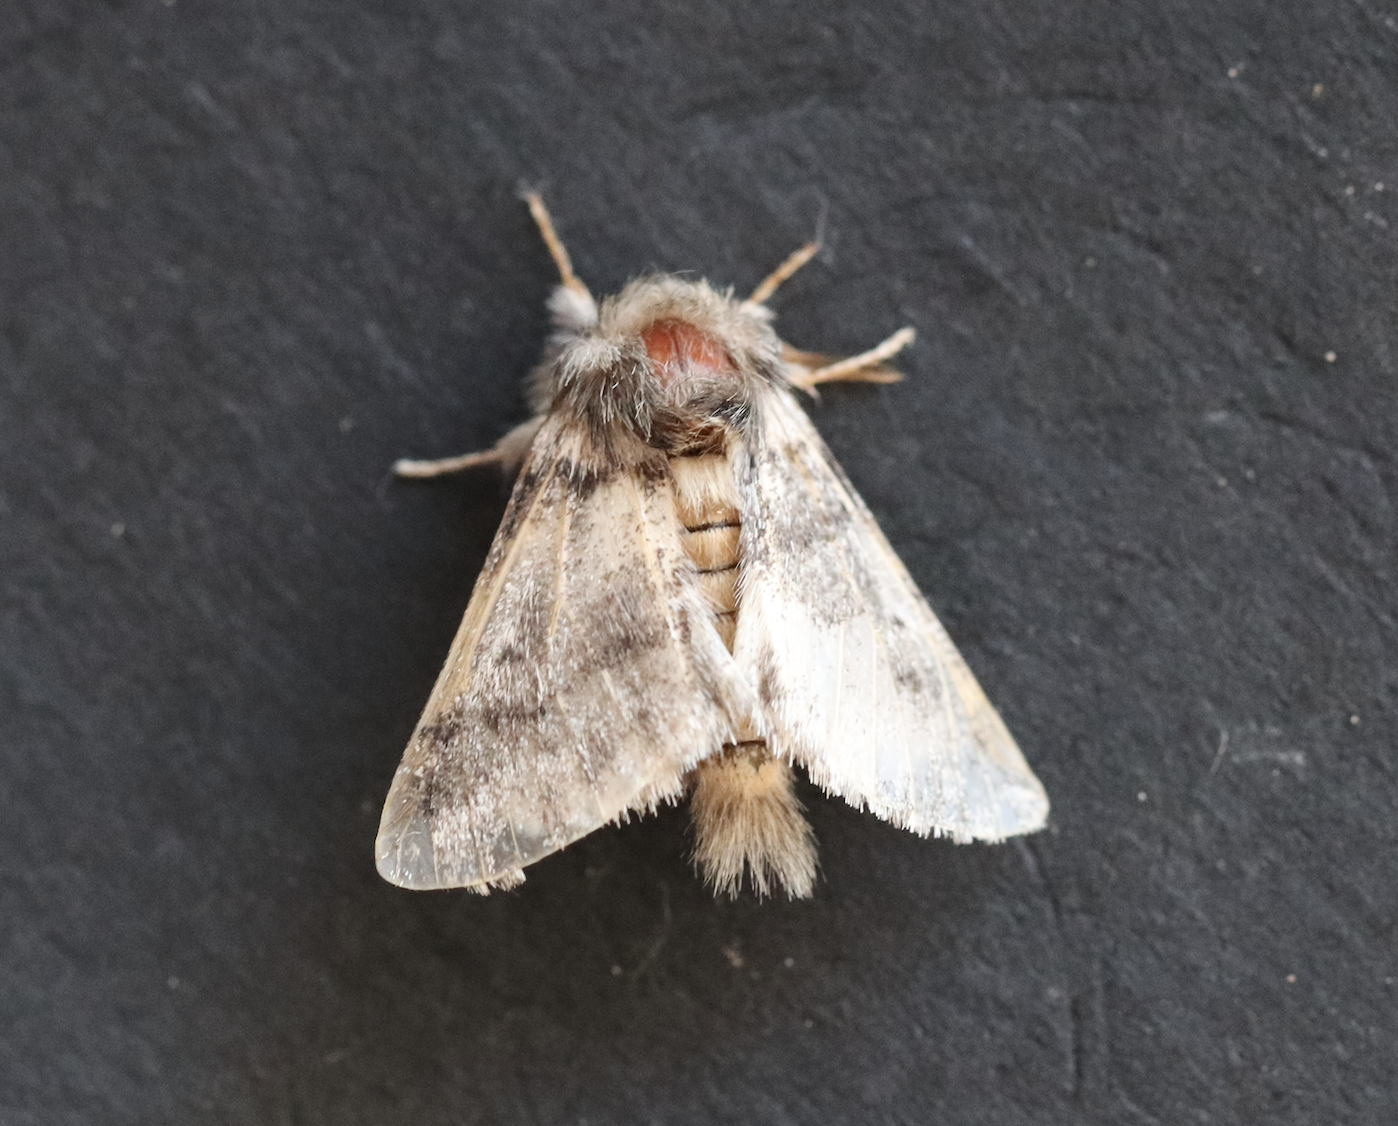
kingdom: Animalia
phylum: Arthropoda
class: Insecta
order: Lepidoptera
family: Notodontidae
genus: Thaumetopoea
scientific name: Thaumetopoea processionea
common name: Oak processionea
